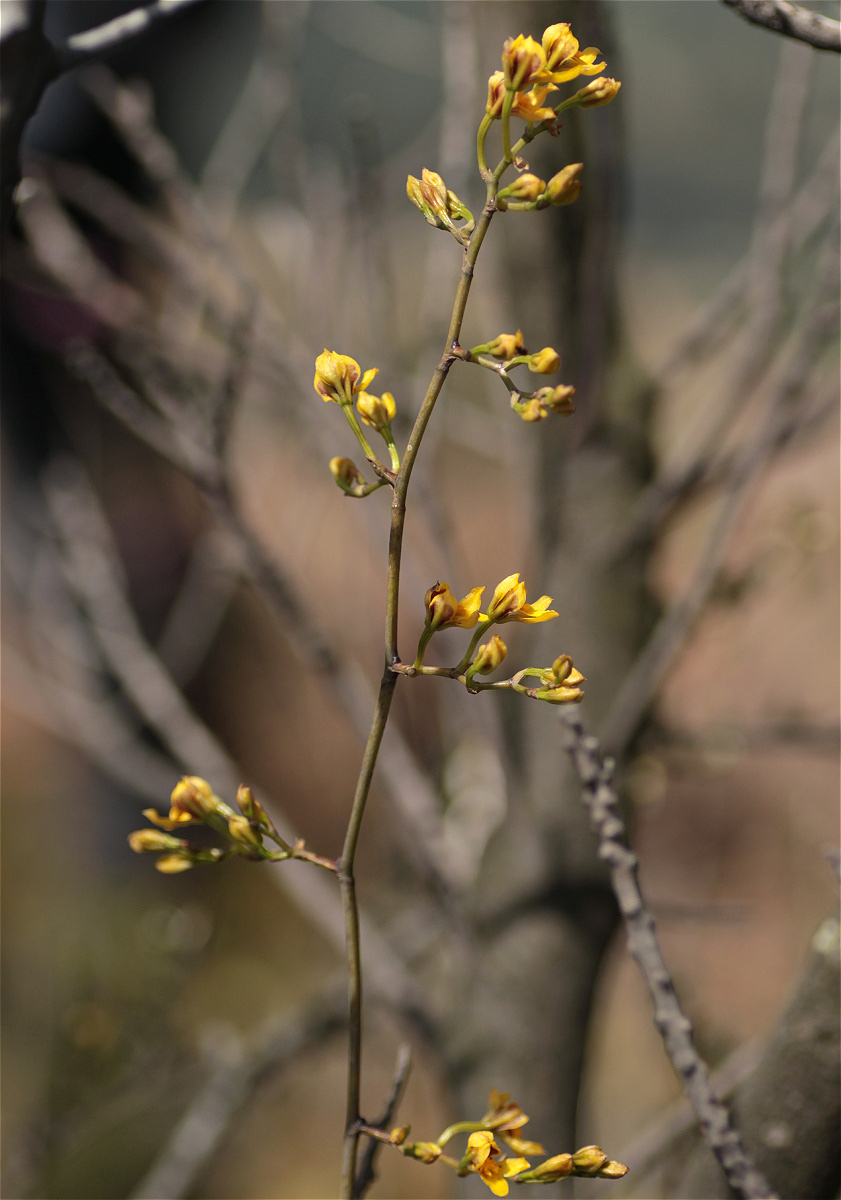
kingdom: Plantae
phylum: Tracheophyta
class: Liliopsida
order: Asparagales
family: Orchidaceae
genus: Cyrtochilum
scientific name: Cyrtochilum densiflorum
